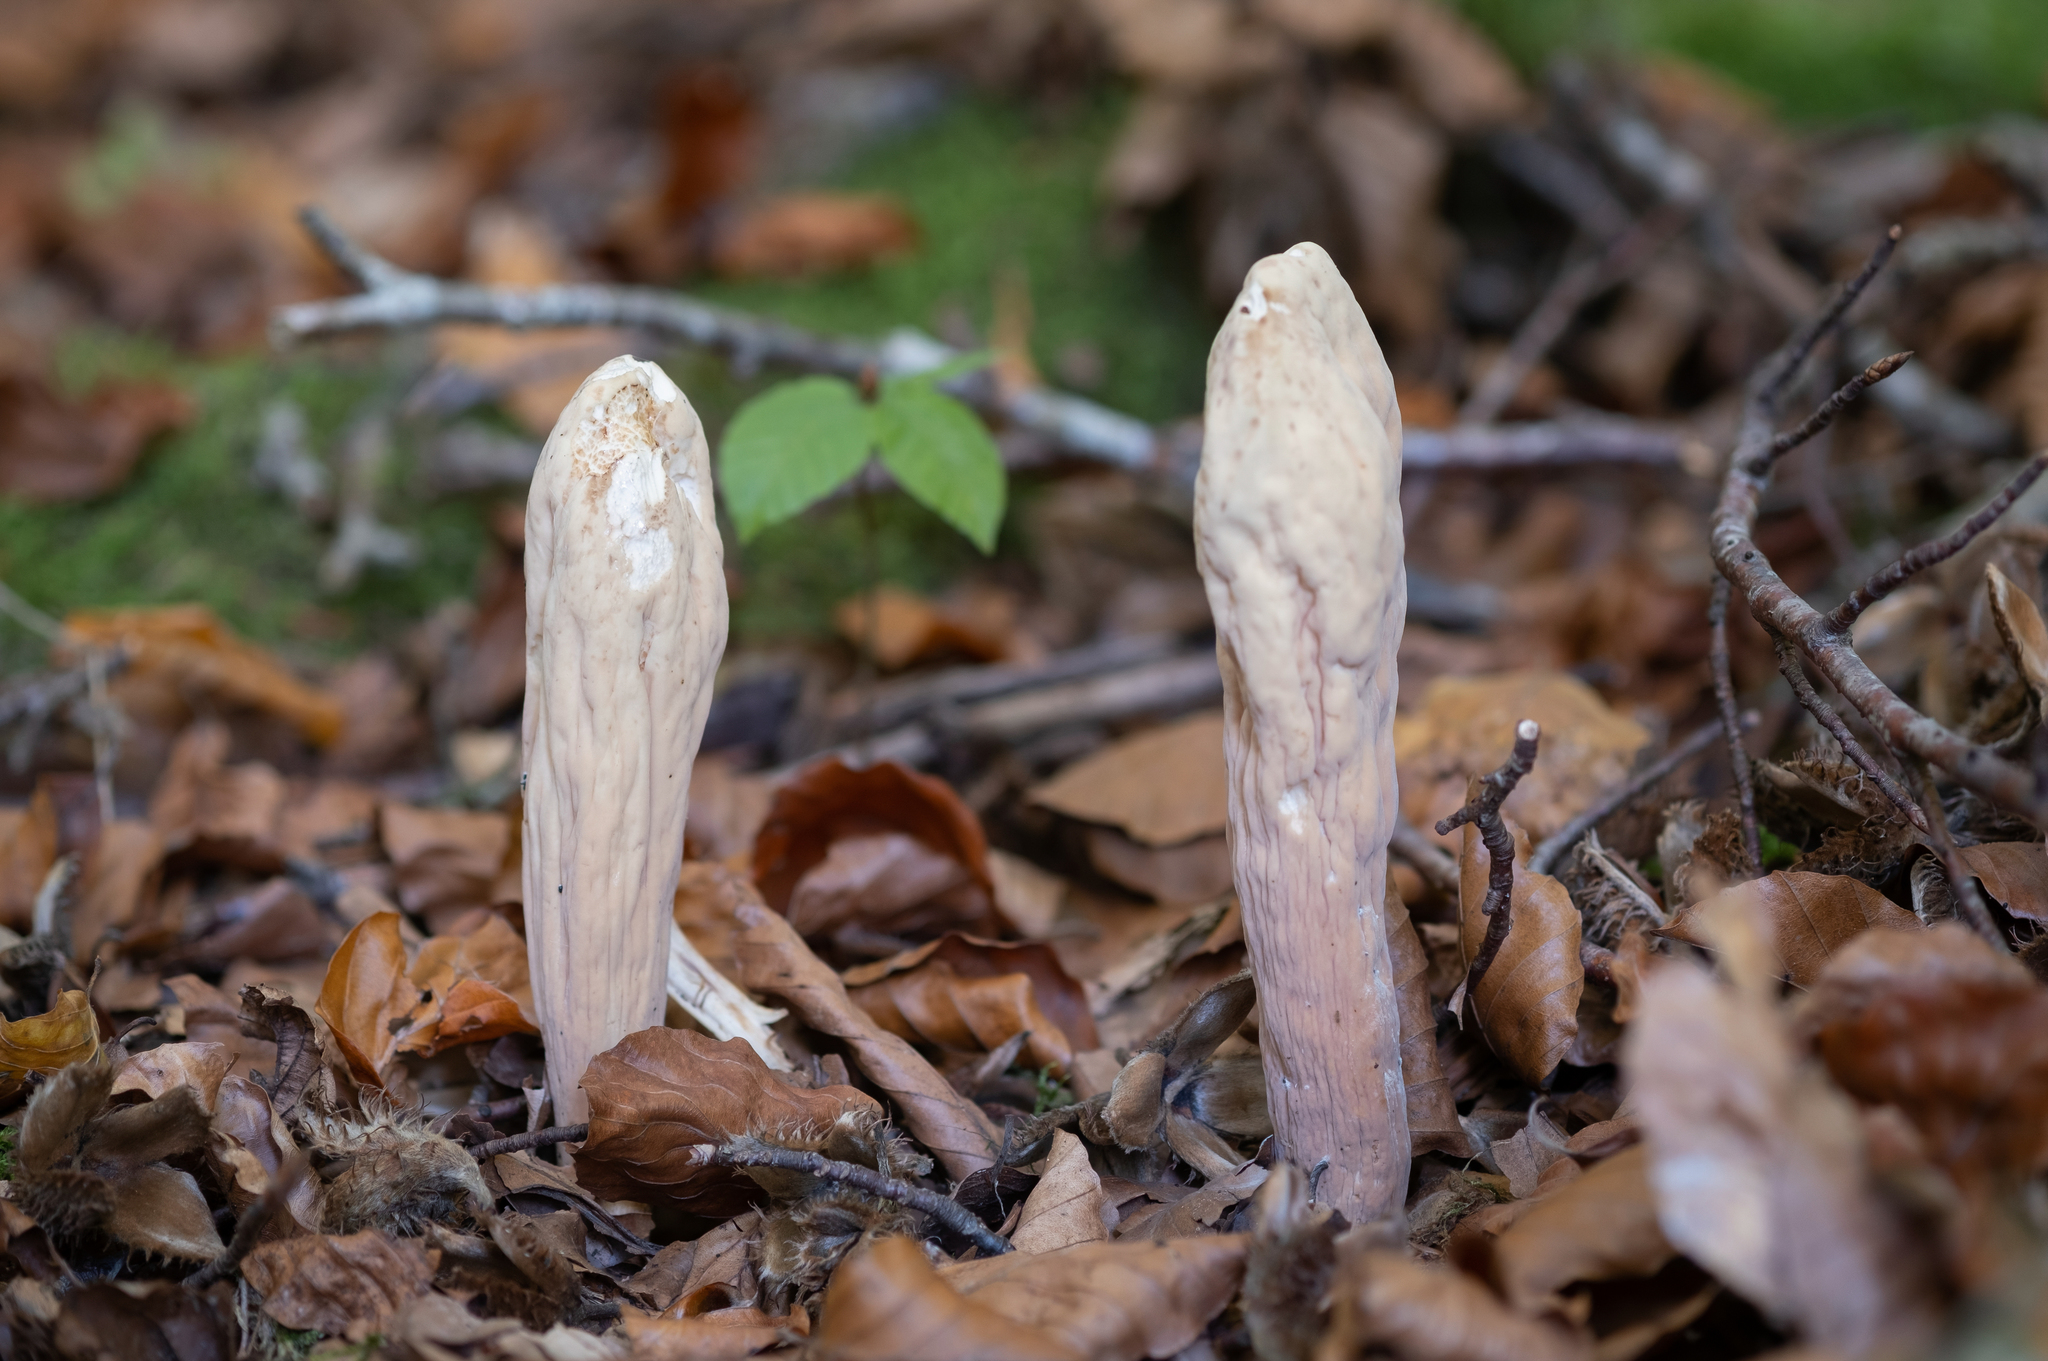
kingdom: Fungi
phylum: Basidiomycota
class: Agaricomycetes
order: Gomphales
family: Clavariadelphaceae
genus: Clavariadelphus
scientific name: Clavariadelphus pistillaris
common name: Giant club
